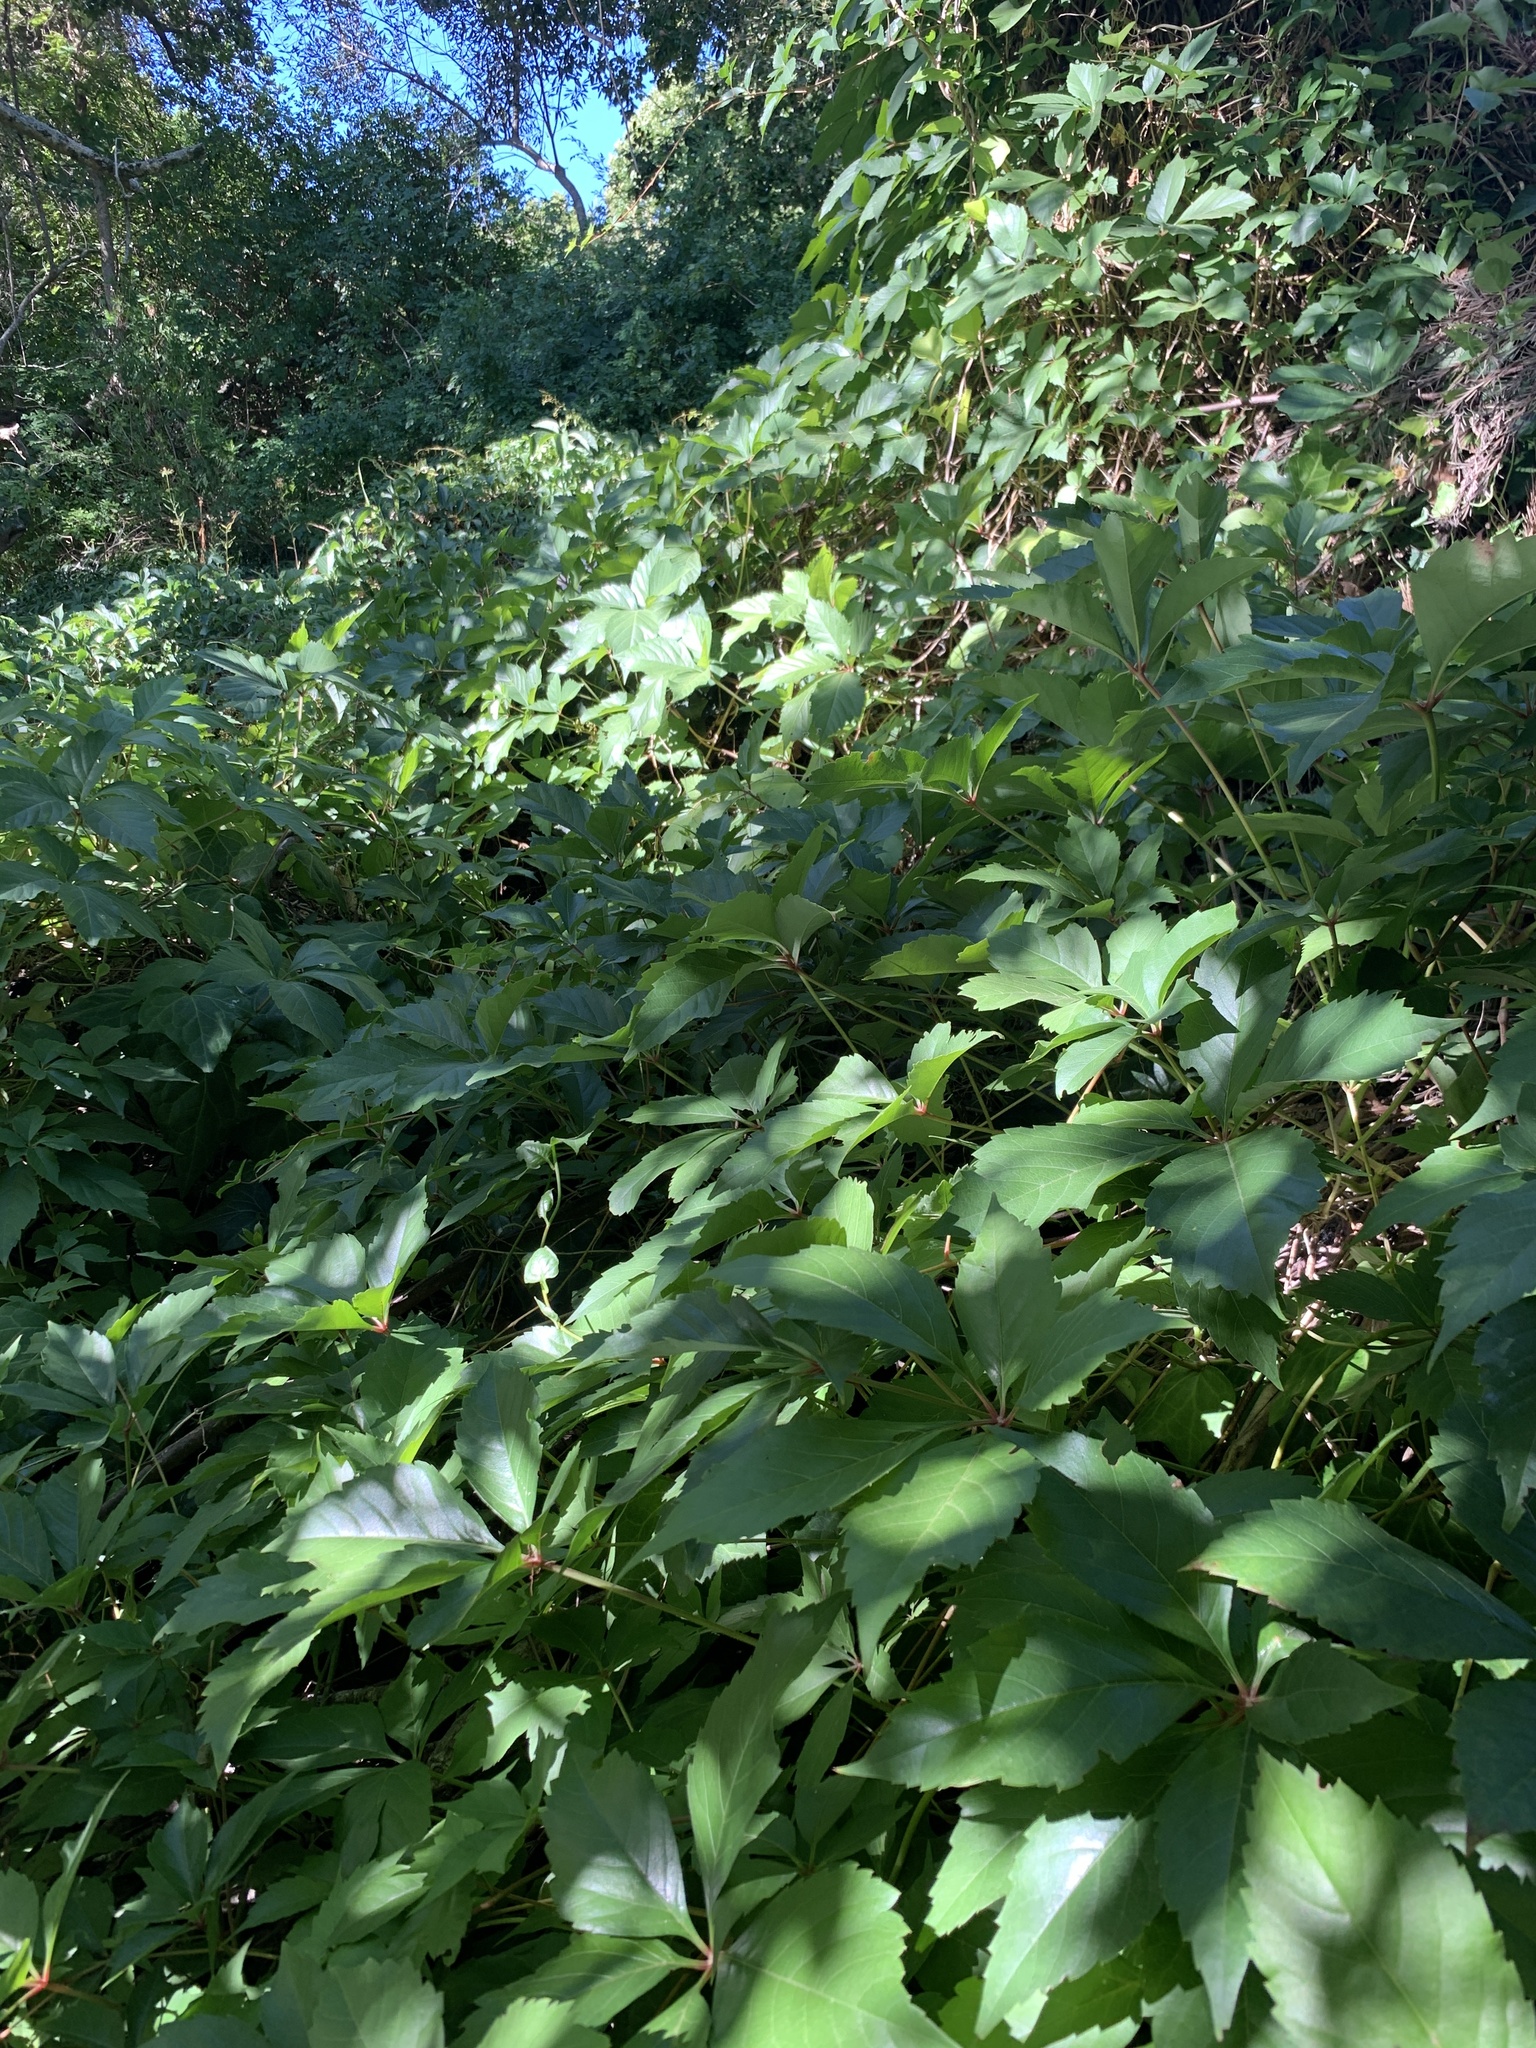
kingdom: Plantae
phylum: Tracheophyta
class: Magnoliopsida
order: Vitales
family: Vitaceae
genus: Parthenocissus
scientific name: Parthenocissus quinquefolia
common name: Virginia-creeper
